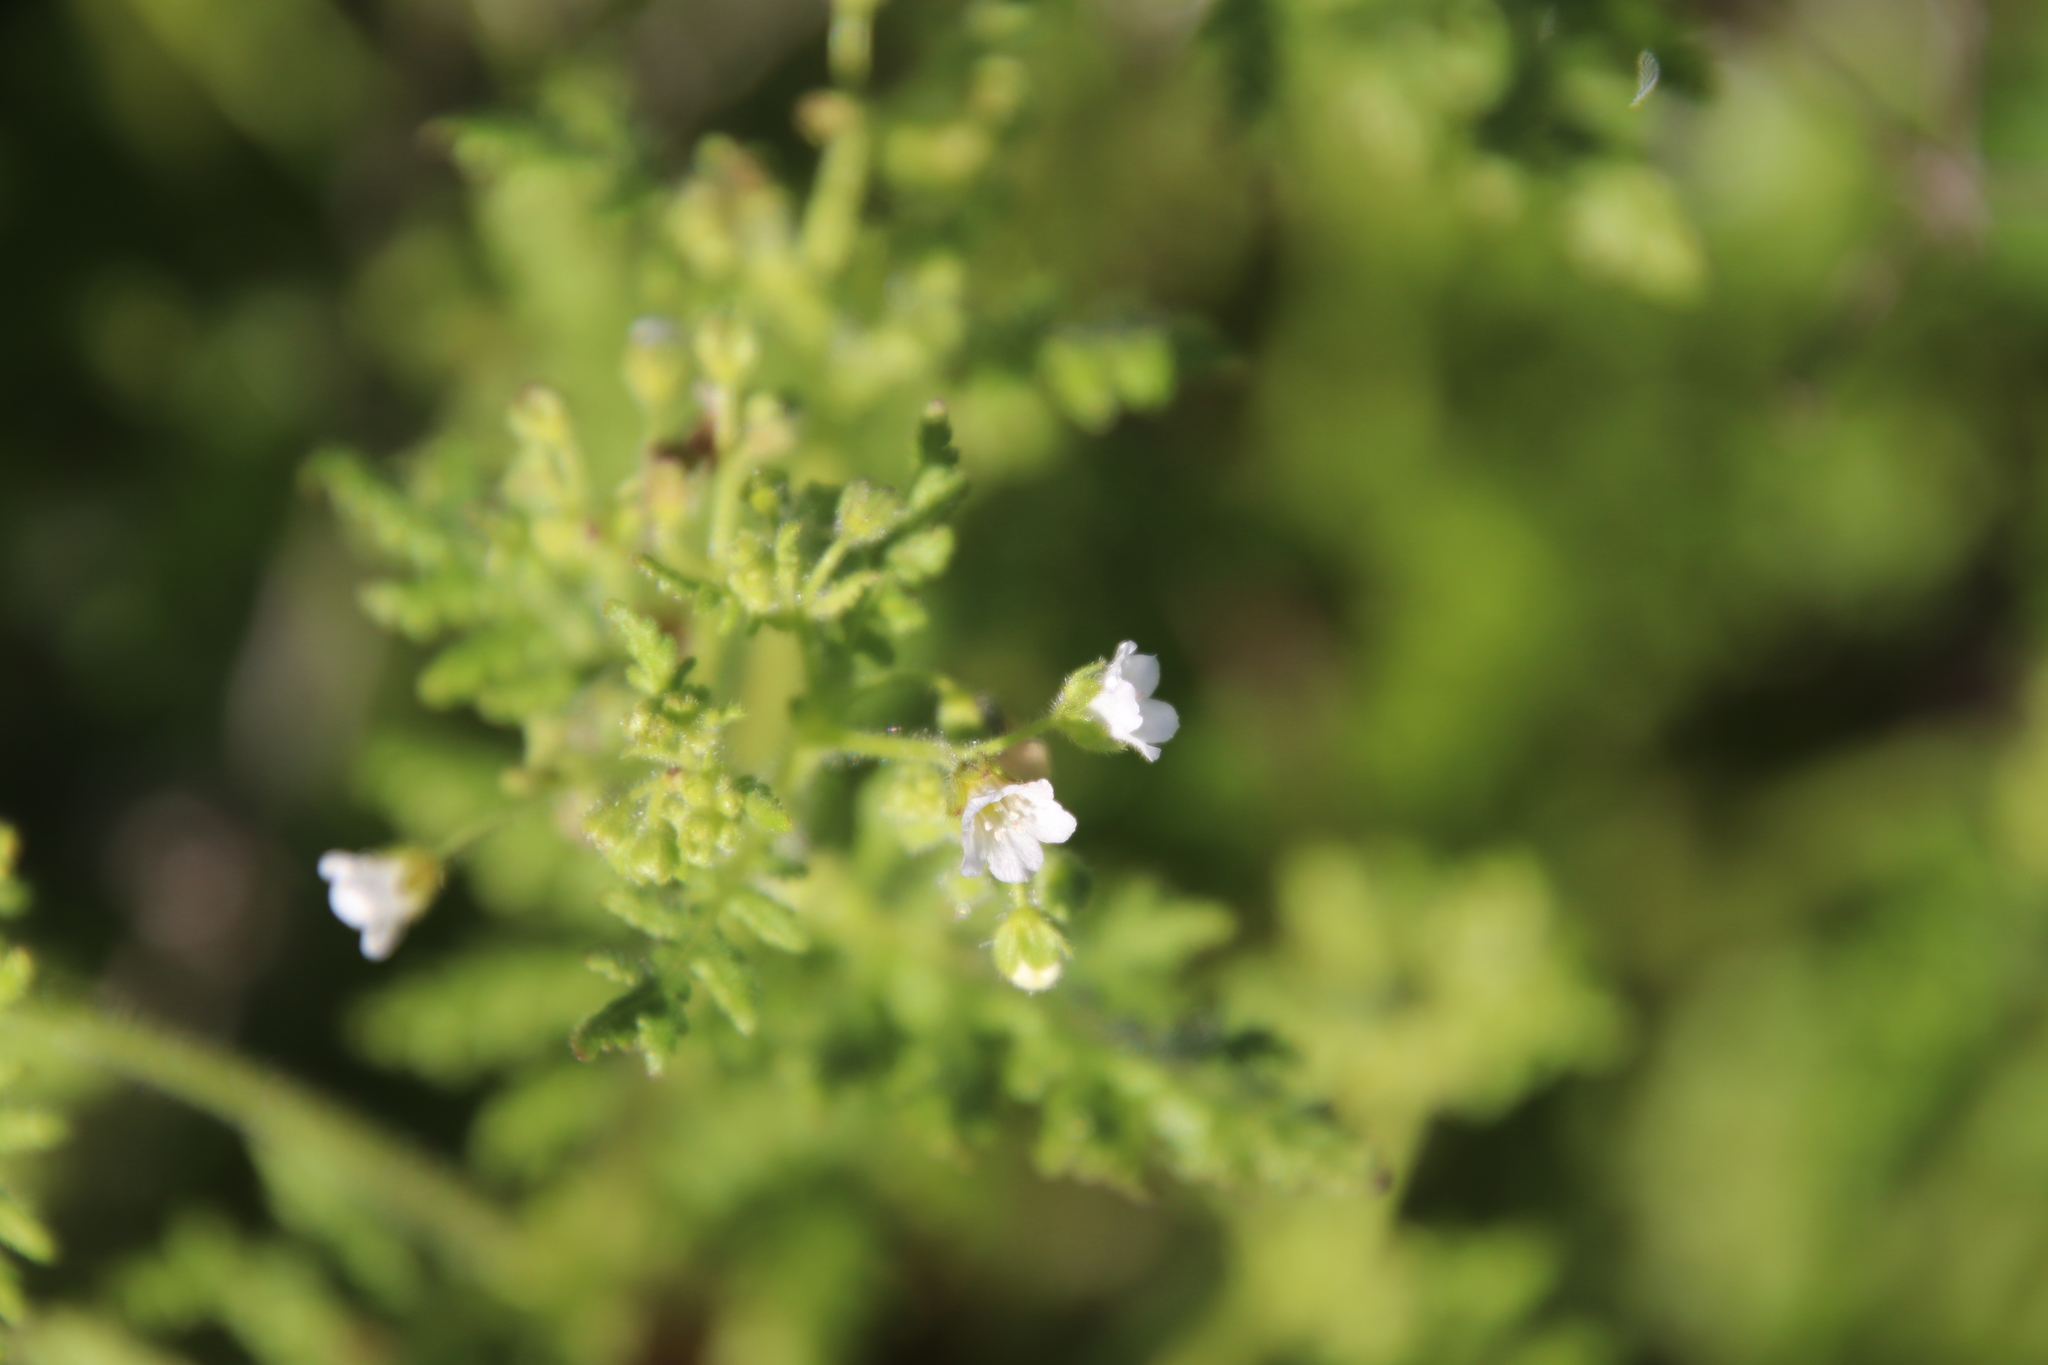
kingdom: Plantae
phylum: Tracheophyta
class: Magnoliopsida
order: Boraginales
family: Hydrophyllaceae
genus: Eucrypta
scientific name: Eucrypta chrysanthemifolia
